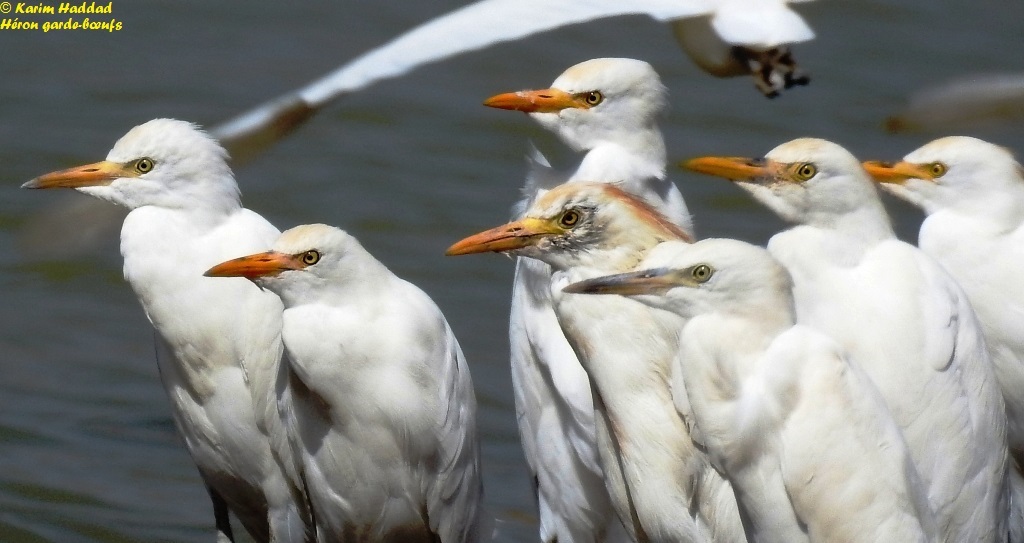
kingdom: Animalia
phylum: Chordata
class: Aves
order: Pelecaniformes
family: Ardeidae
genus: Bubulcus
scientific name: Bubulcus ibis
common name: Cattle egret
